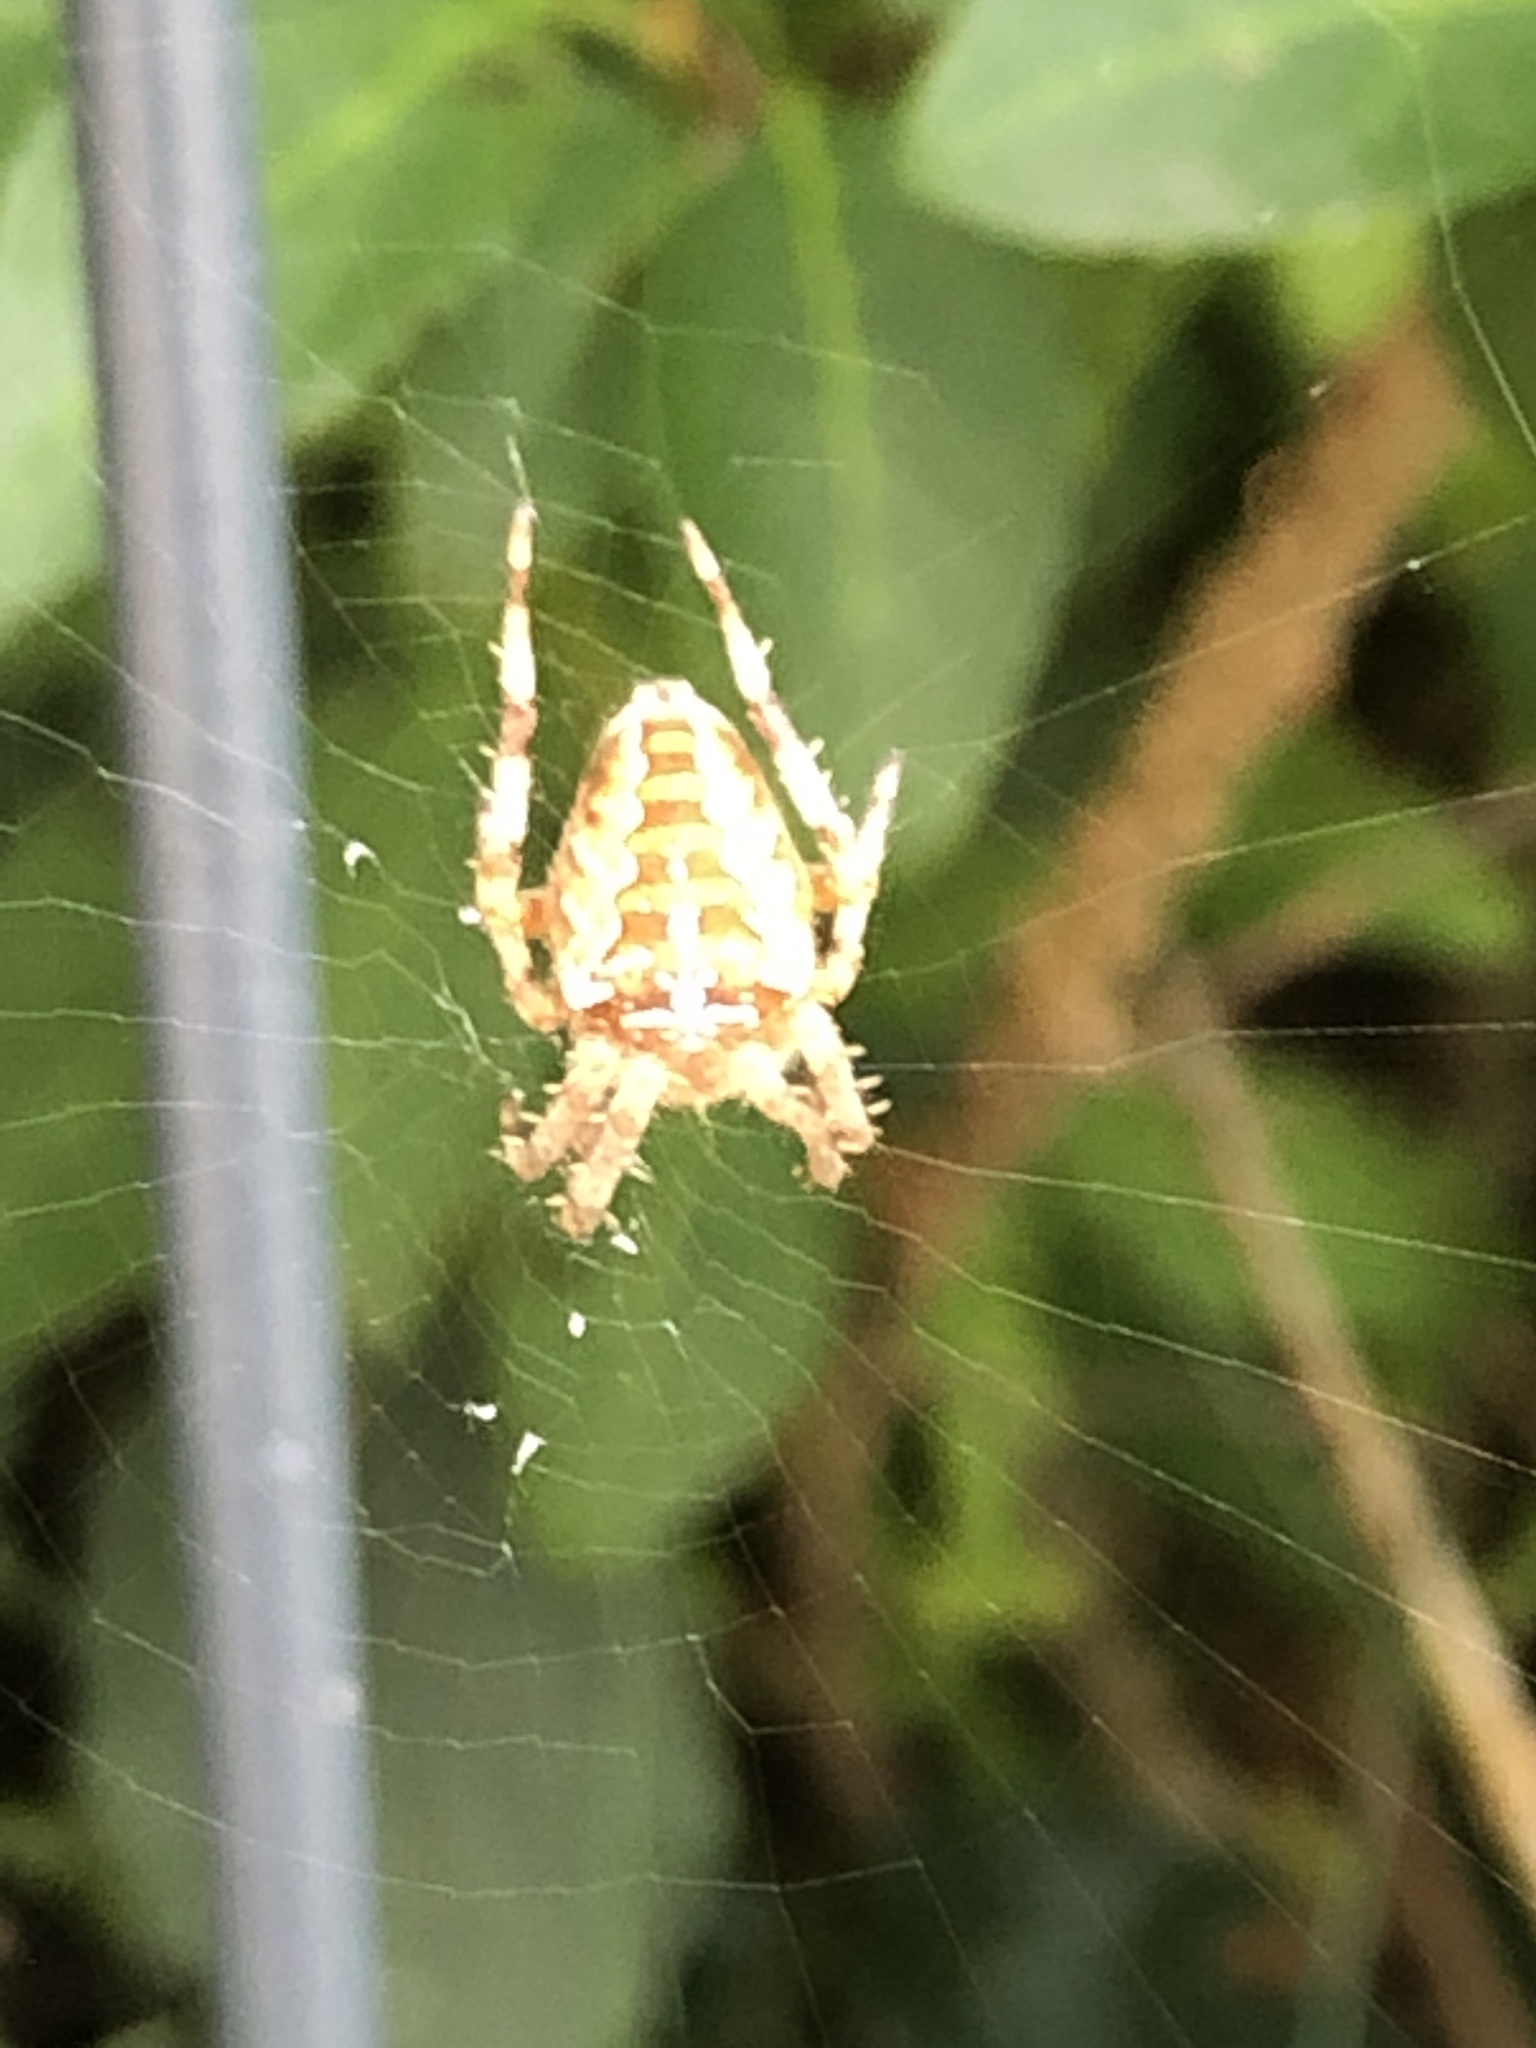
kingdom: Animalia
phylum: Arthropoda
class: Arachnida
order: Araneae
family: Araneidae
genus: Araneus
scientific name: Araneus diadematus
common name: Cross orbweaver
